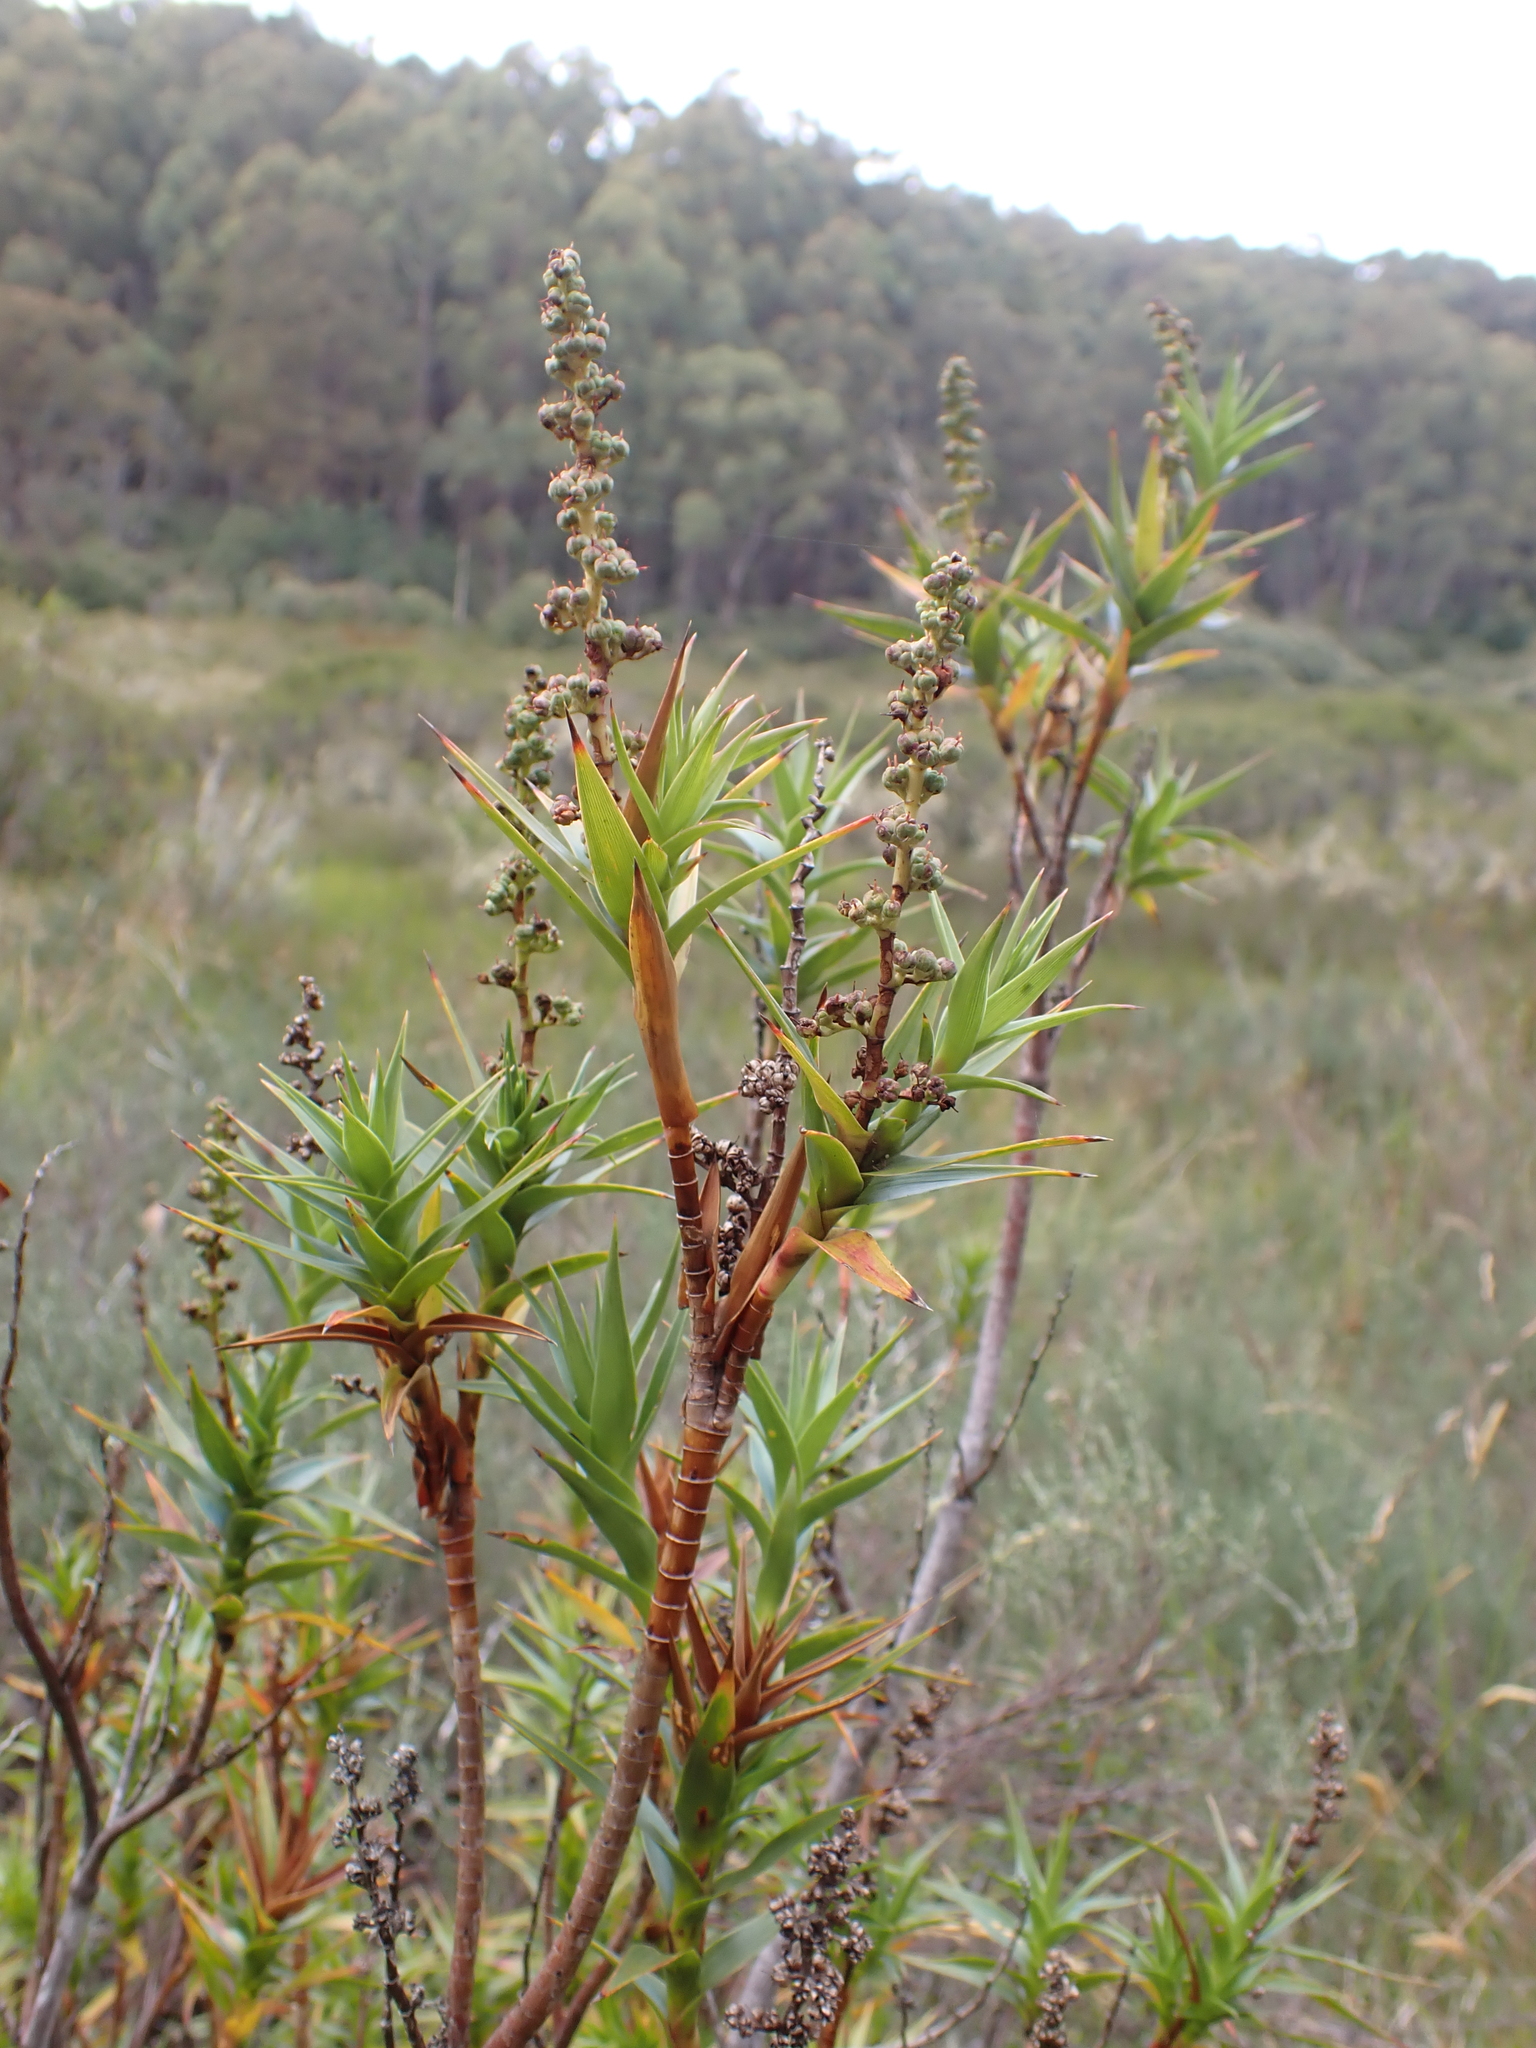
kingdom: Plantae
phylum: Tracheophyta
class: Magnoliopsida
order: Ericales
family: Ericaceae
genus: Dracophyllum
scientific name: Dracophyllum victorianum
